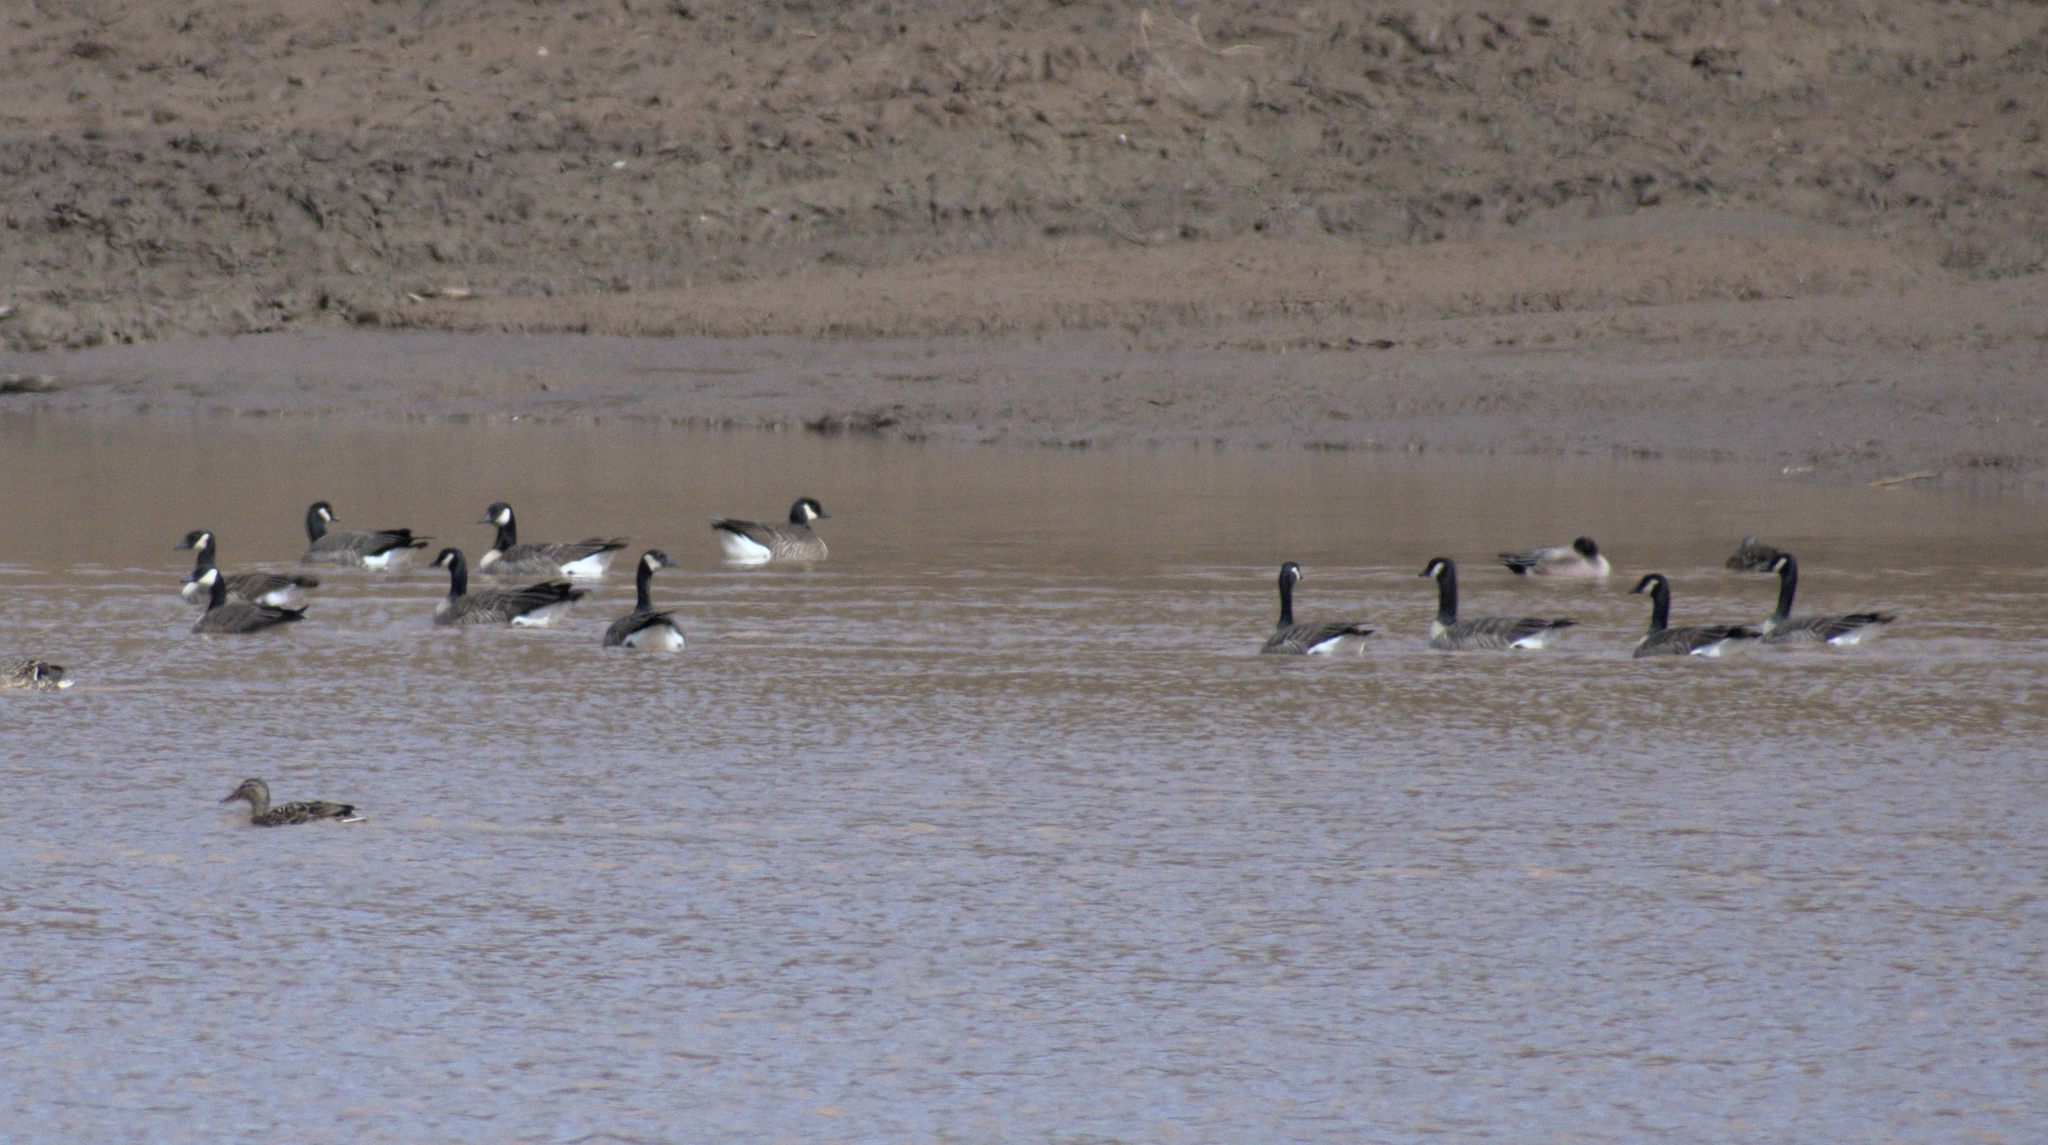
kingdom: Animalia
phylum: Chordata
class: Aves
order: Anseriformes
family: Anatidae
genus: Branta
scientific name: Branta canadensis
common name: Canada goose
